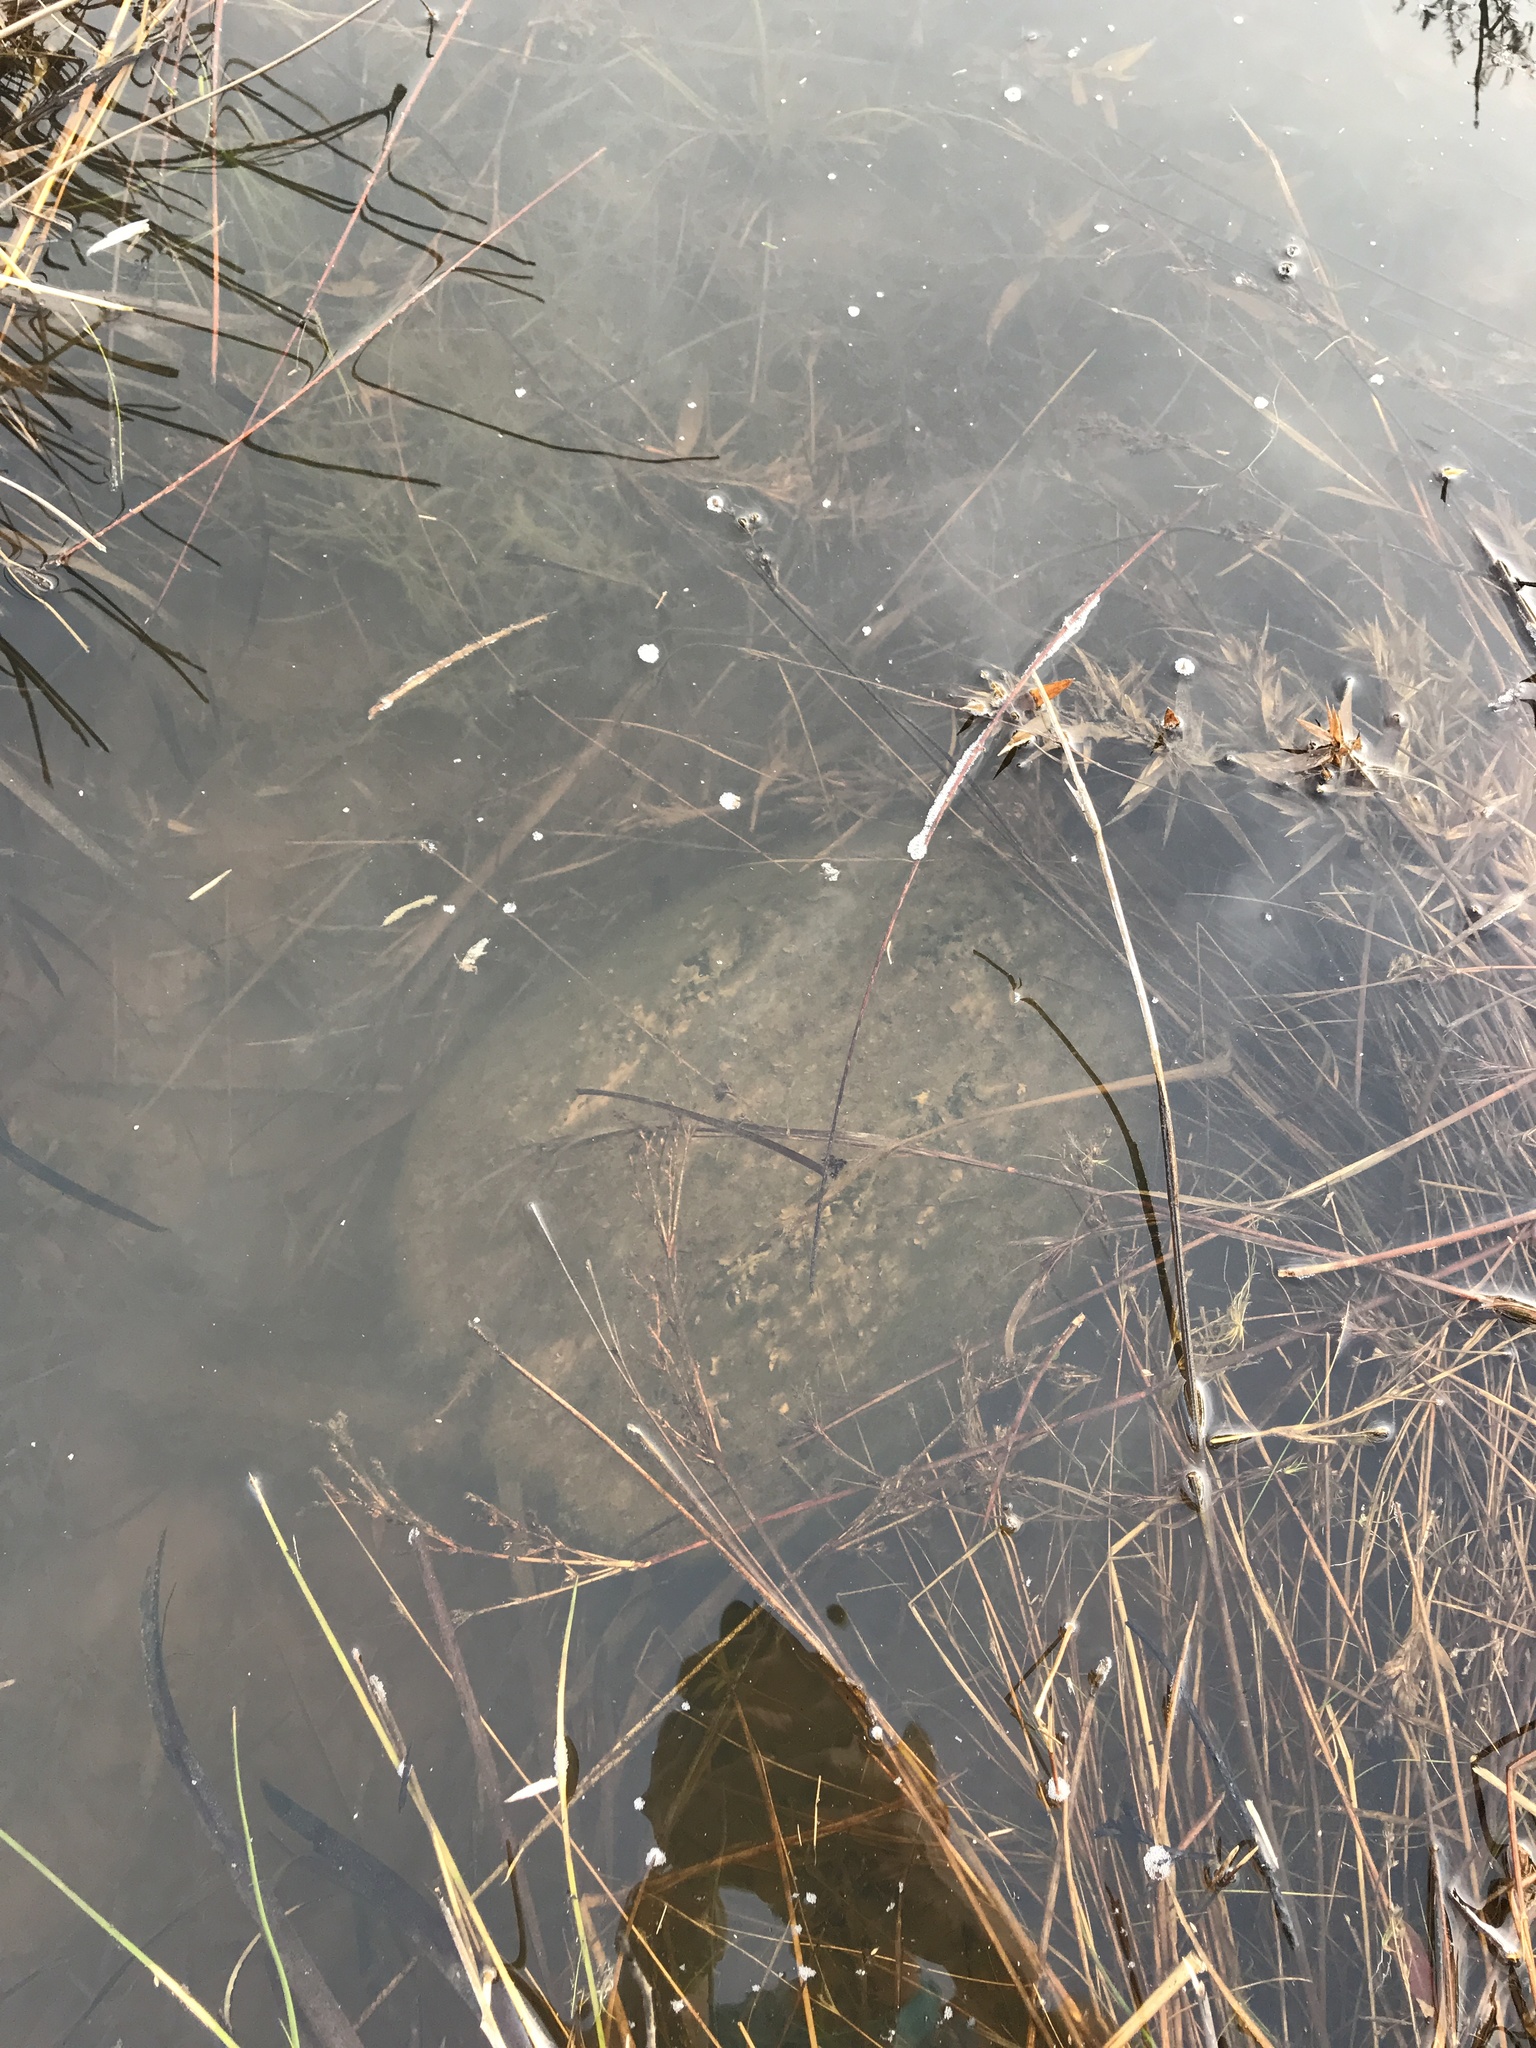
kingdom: Animalia
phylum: Chordata
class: Testudines
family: Chelydridae
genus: Chelydra
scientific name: Chelydra serpentina
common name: Common snapping turtle
